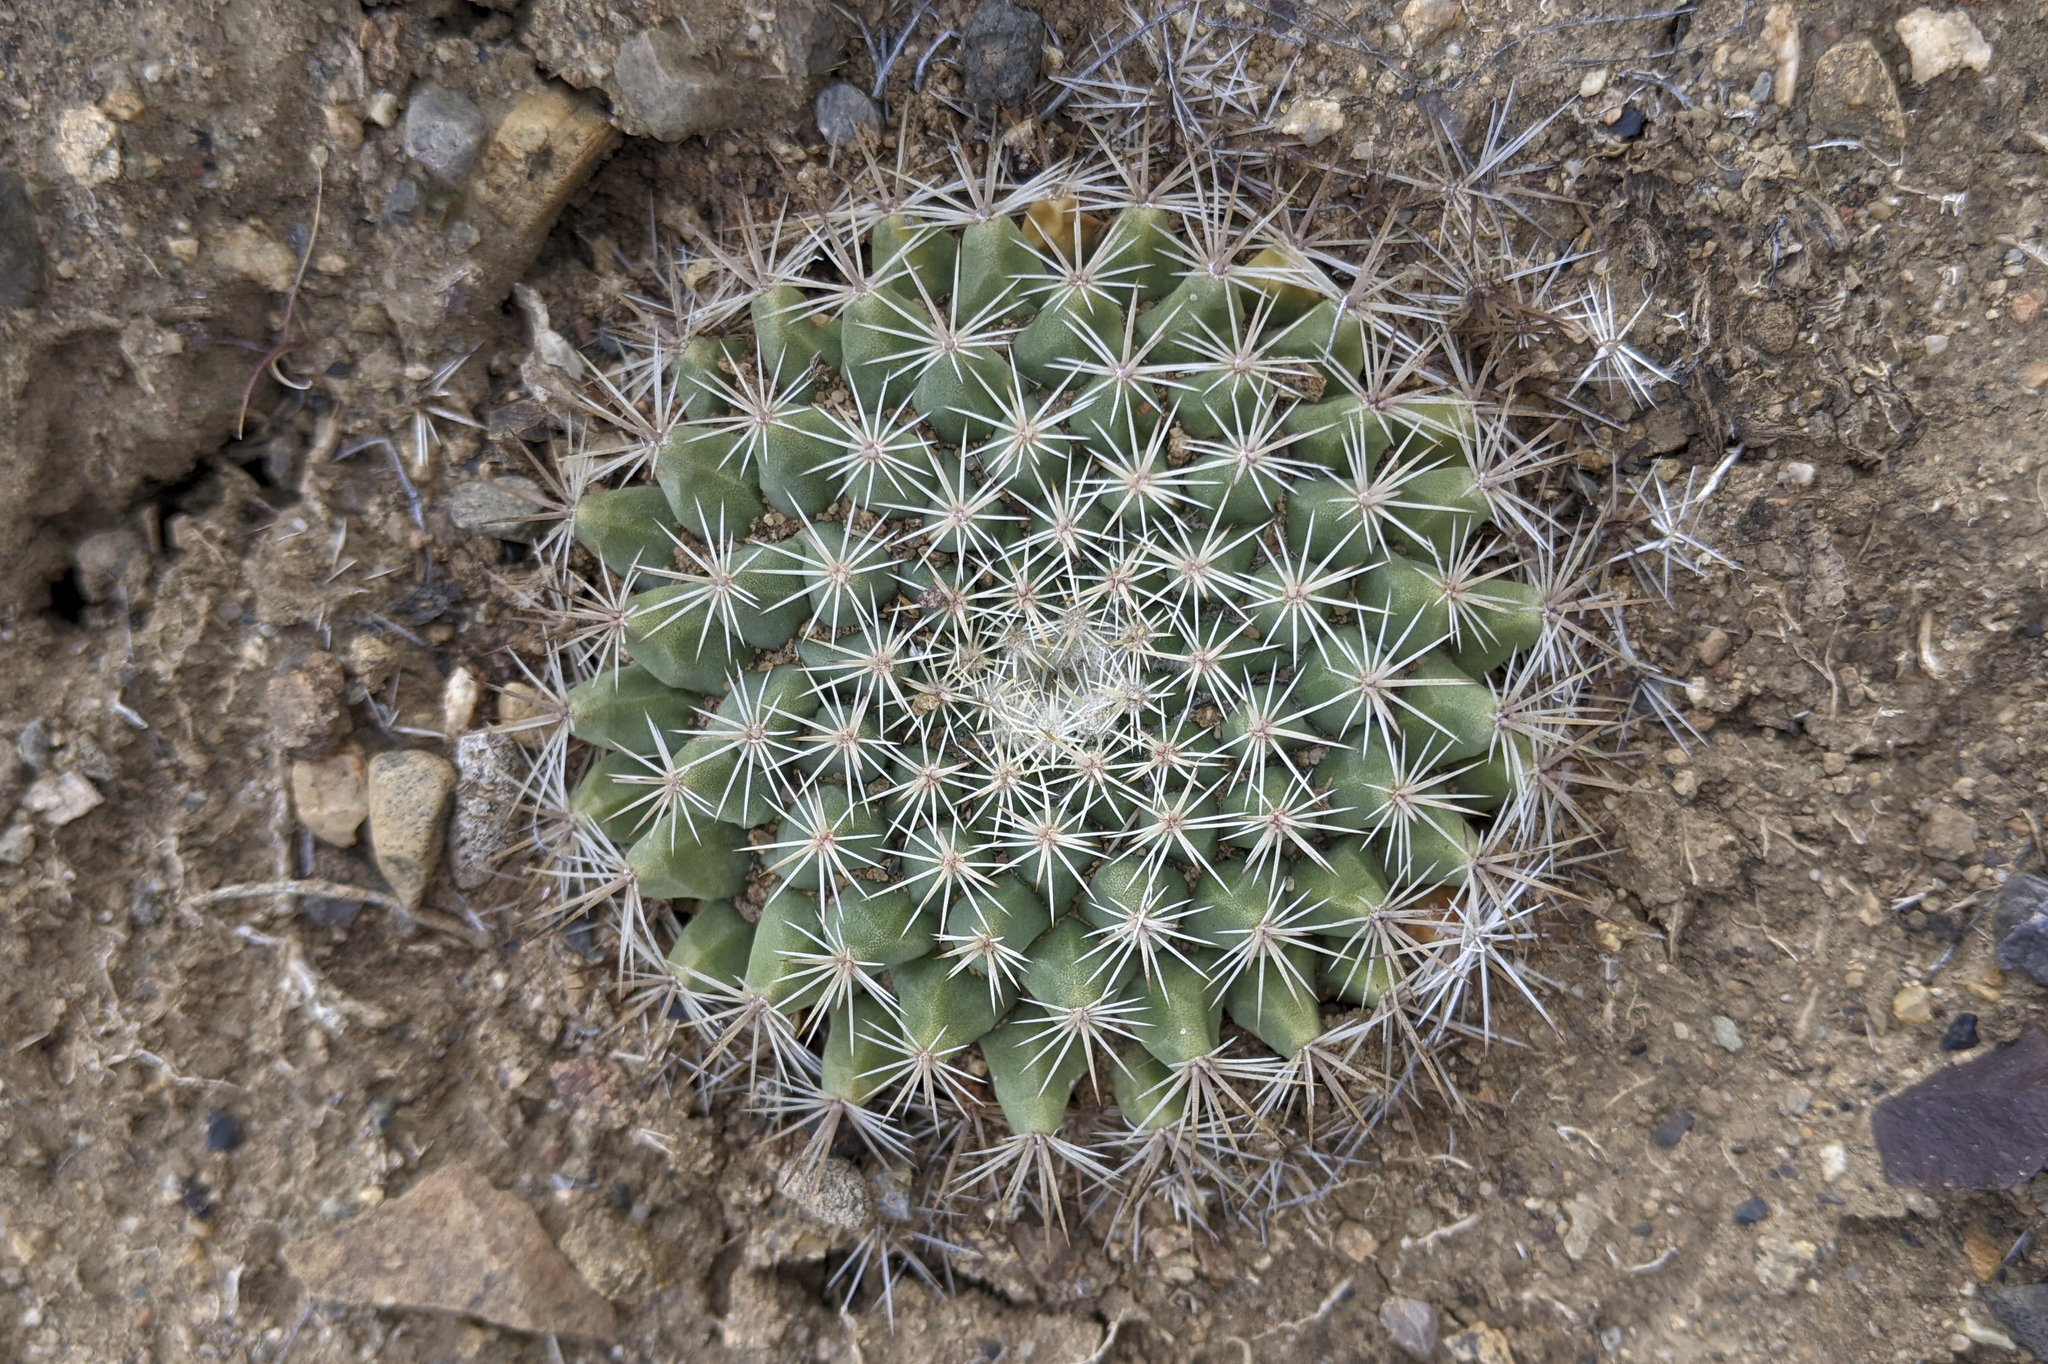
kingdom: Plantae
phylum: Tracheophyta
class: Magnoliopsida
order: Caryophyllales
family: Cactaceae
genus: Mammillaria
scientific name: Mammillaria brandegeei
